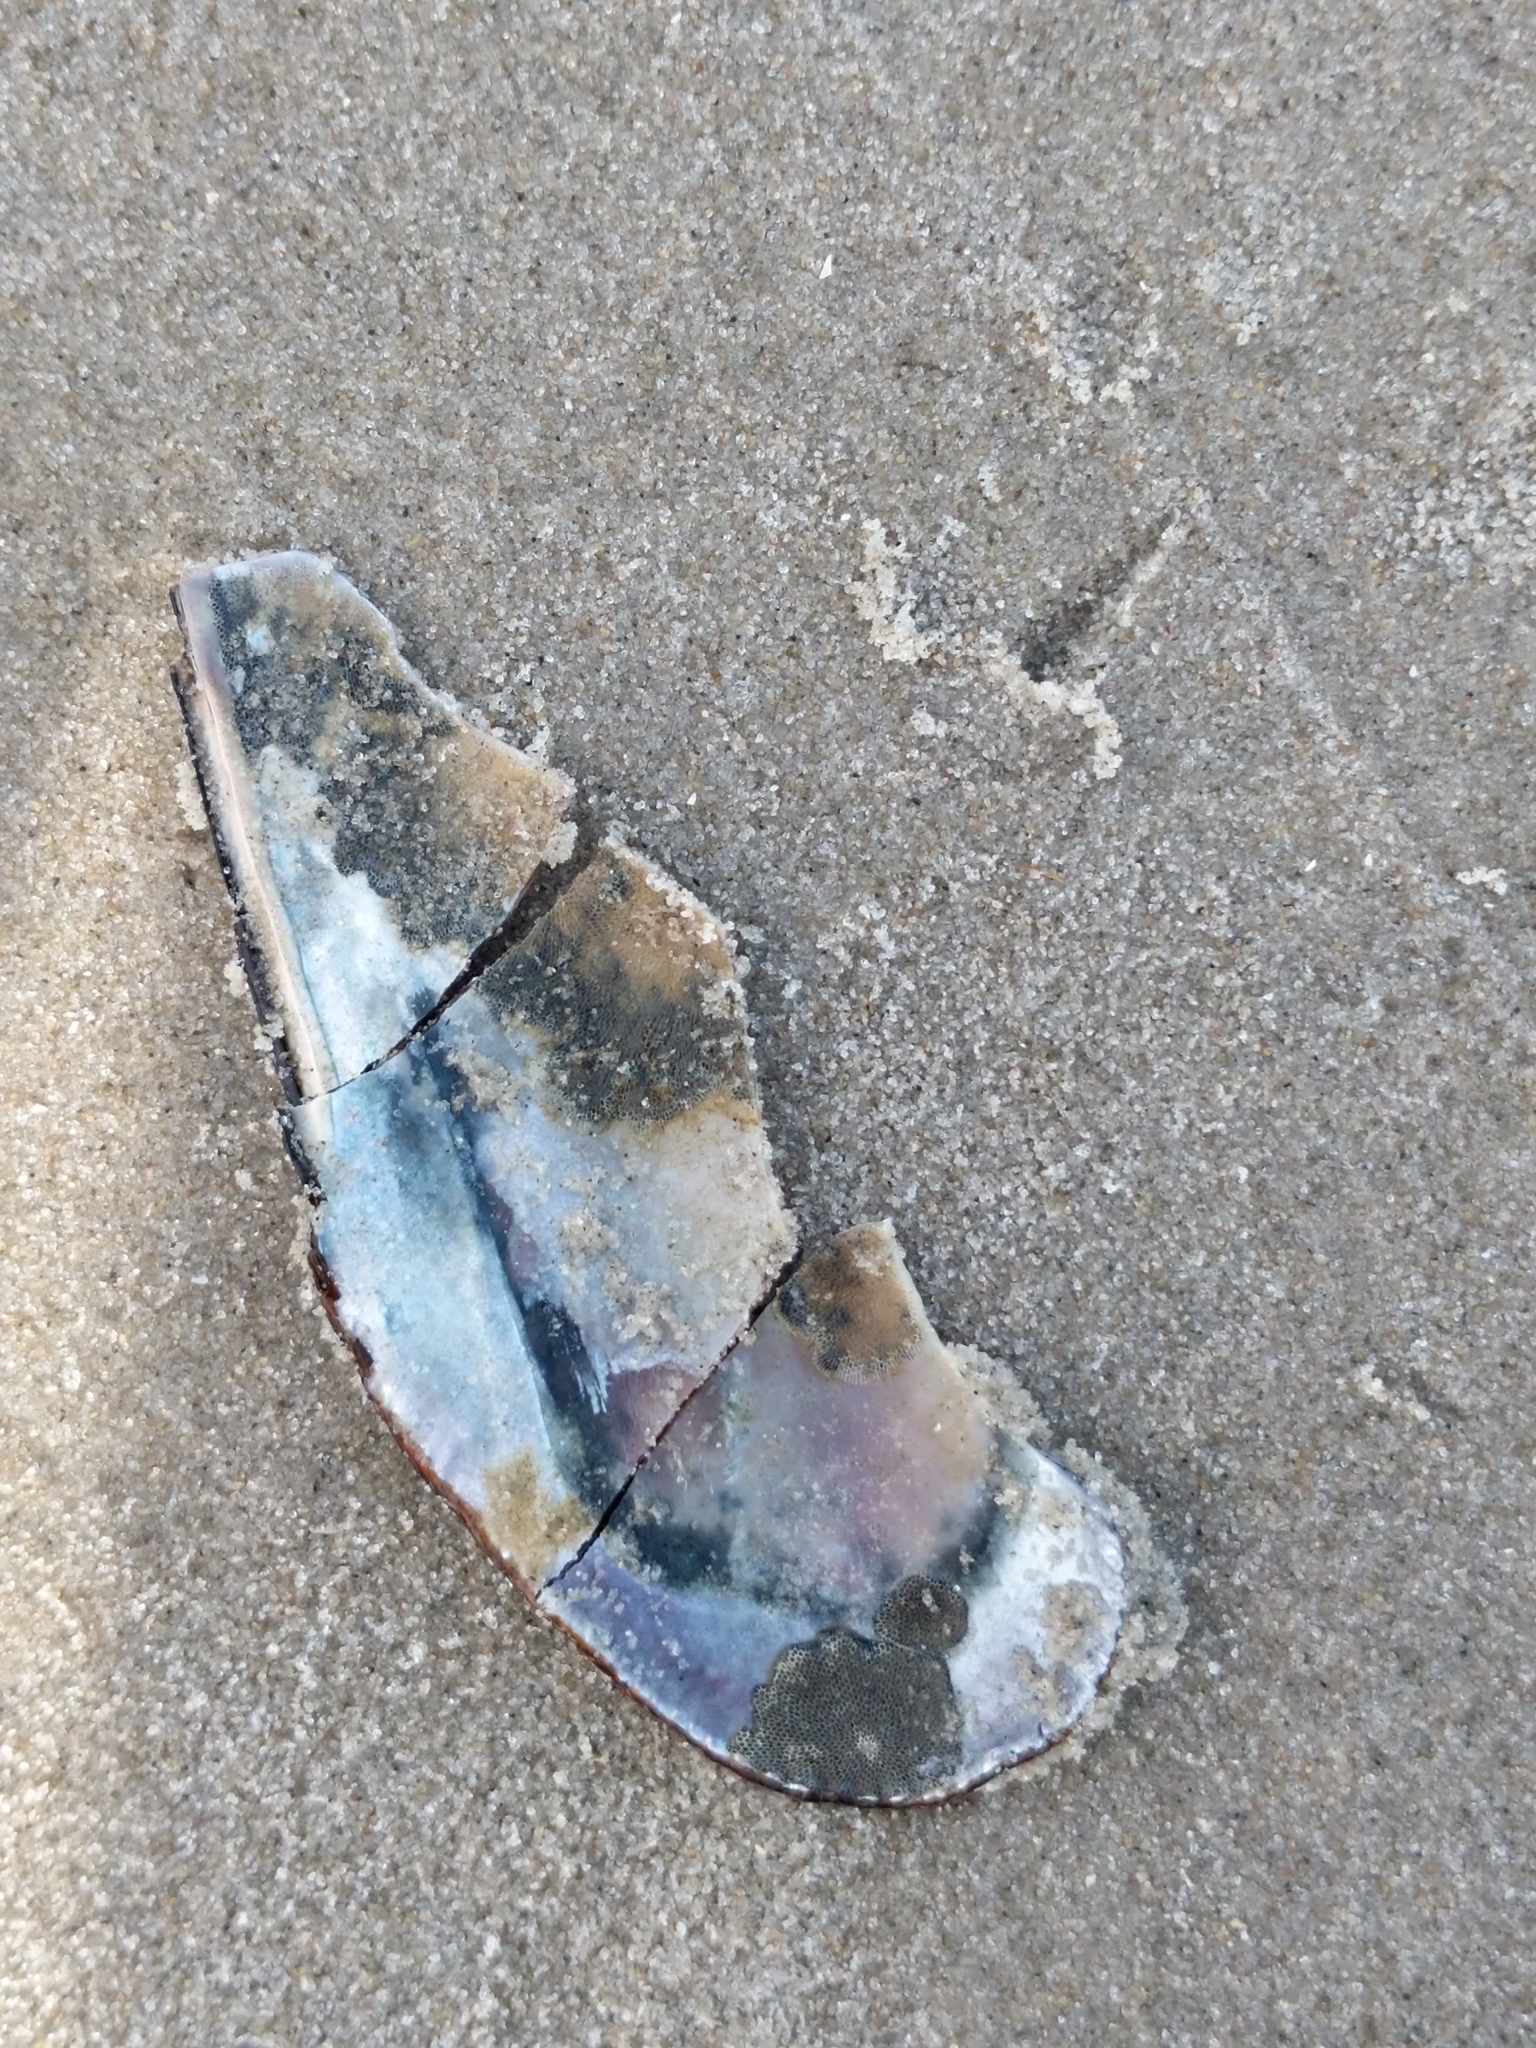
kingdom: Animalia
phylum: Mollusca
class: Bivalvia
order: Mytilida
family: Mytilidae
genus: Geukensia
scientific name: Geukensia demissa
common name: Ribbed mussel
